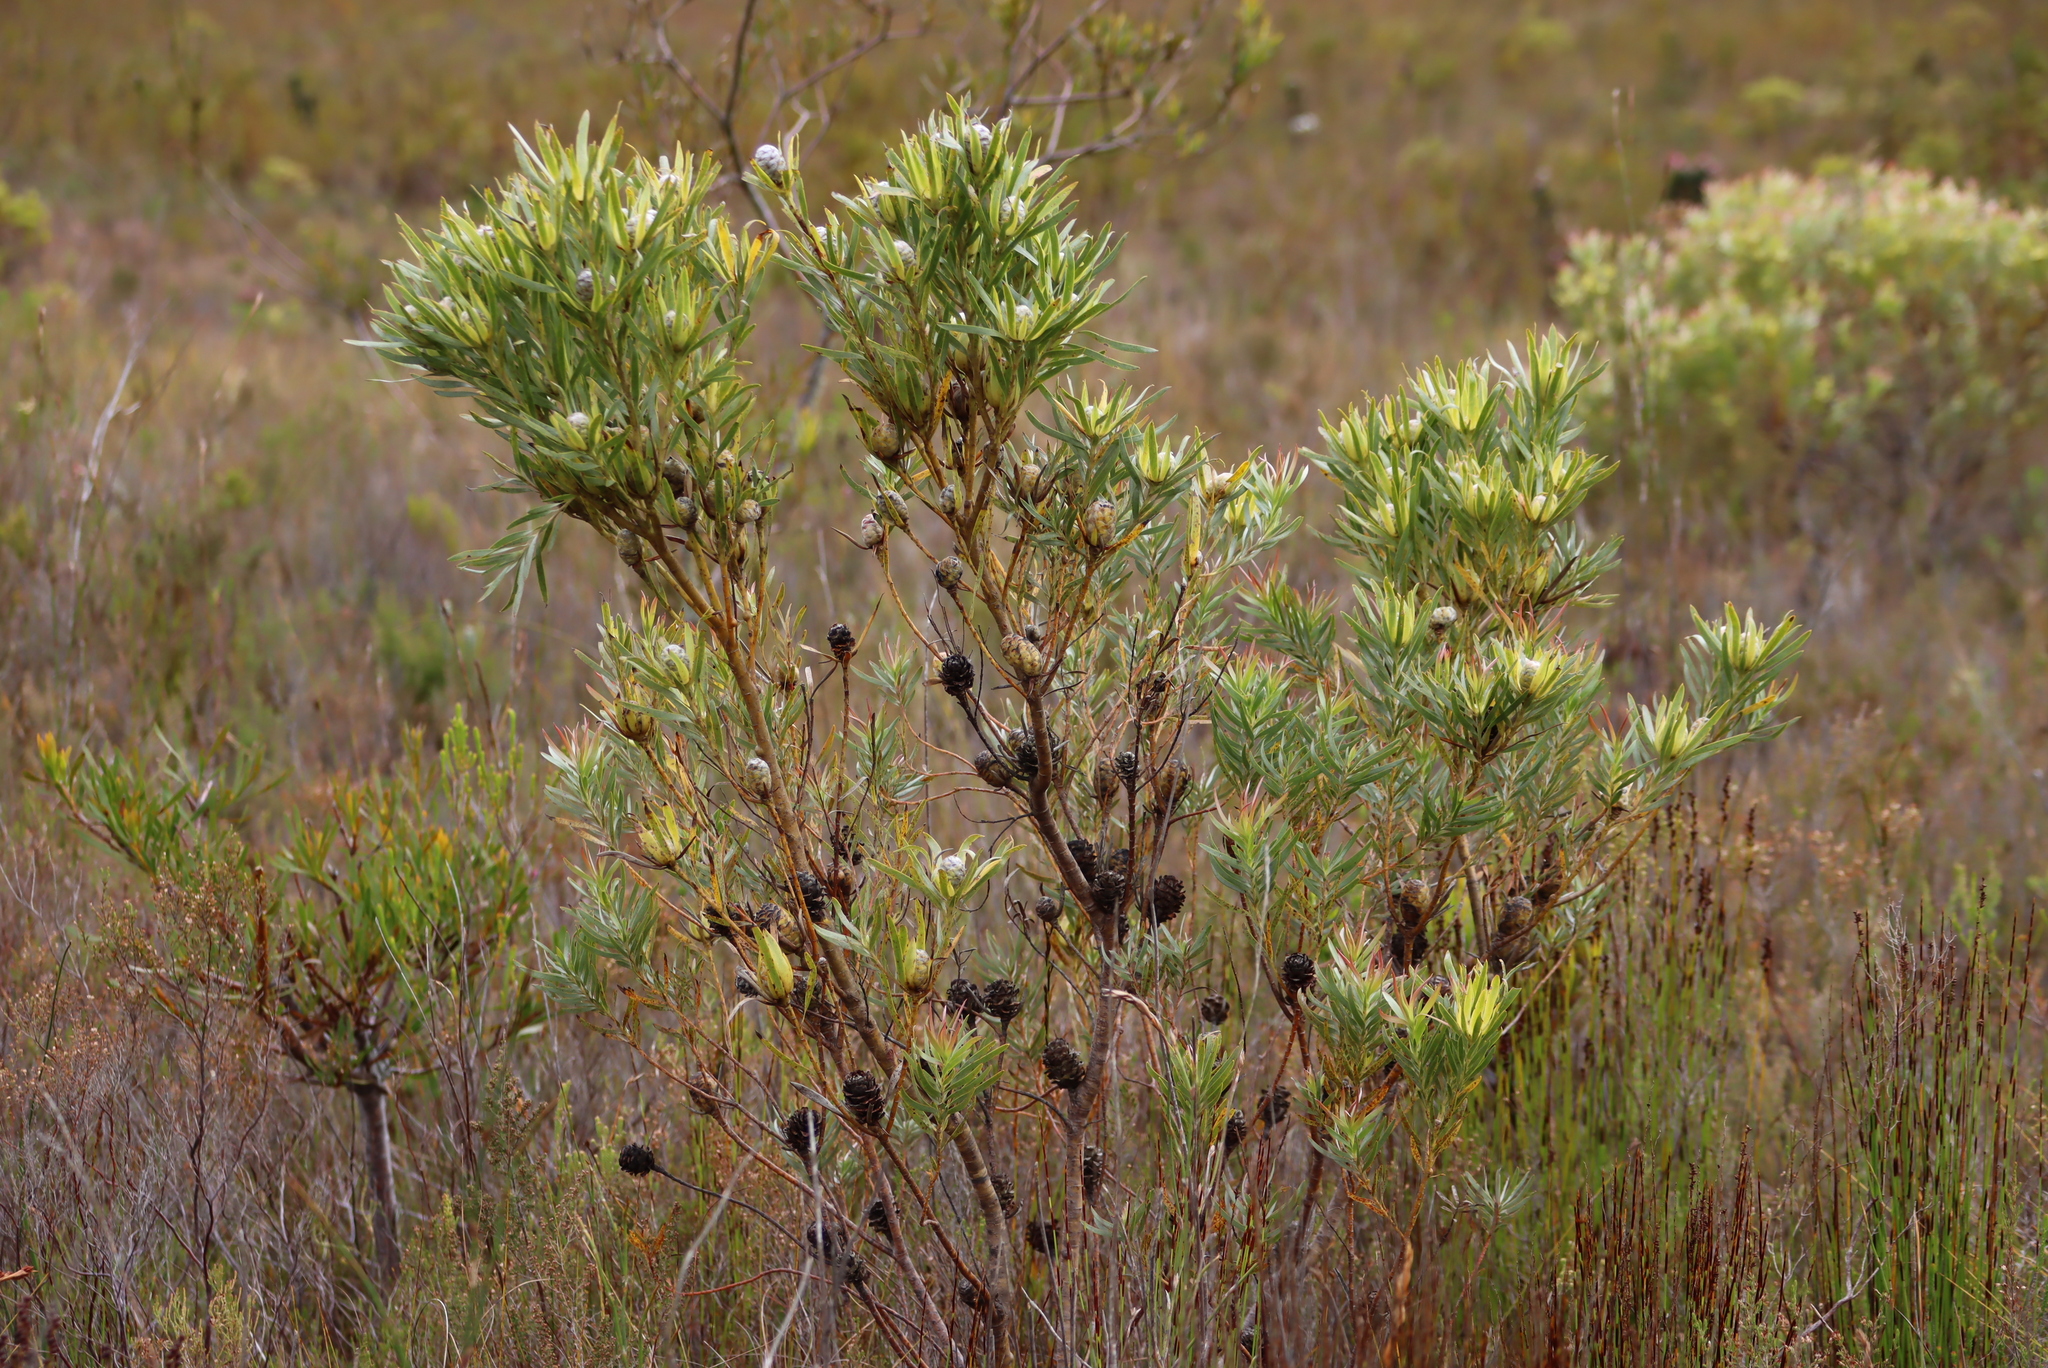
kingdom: Plantae
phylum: Tracheophyta
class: Magnoliopsida
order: Proteales
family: Proteaceae
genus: Leucadendron
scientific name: Leucadendron xanthoconus
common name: Sickle-leaf conebush
